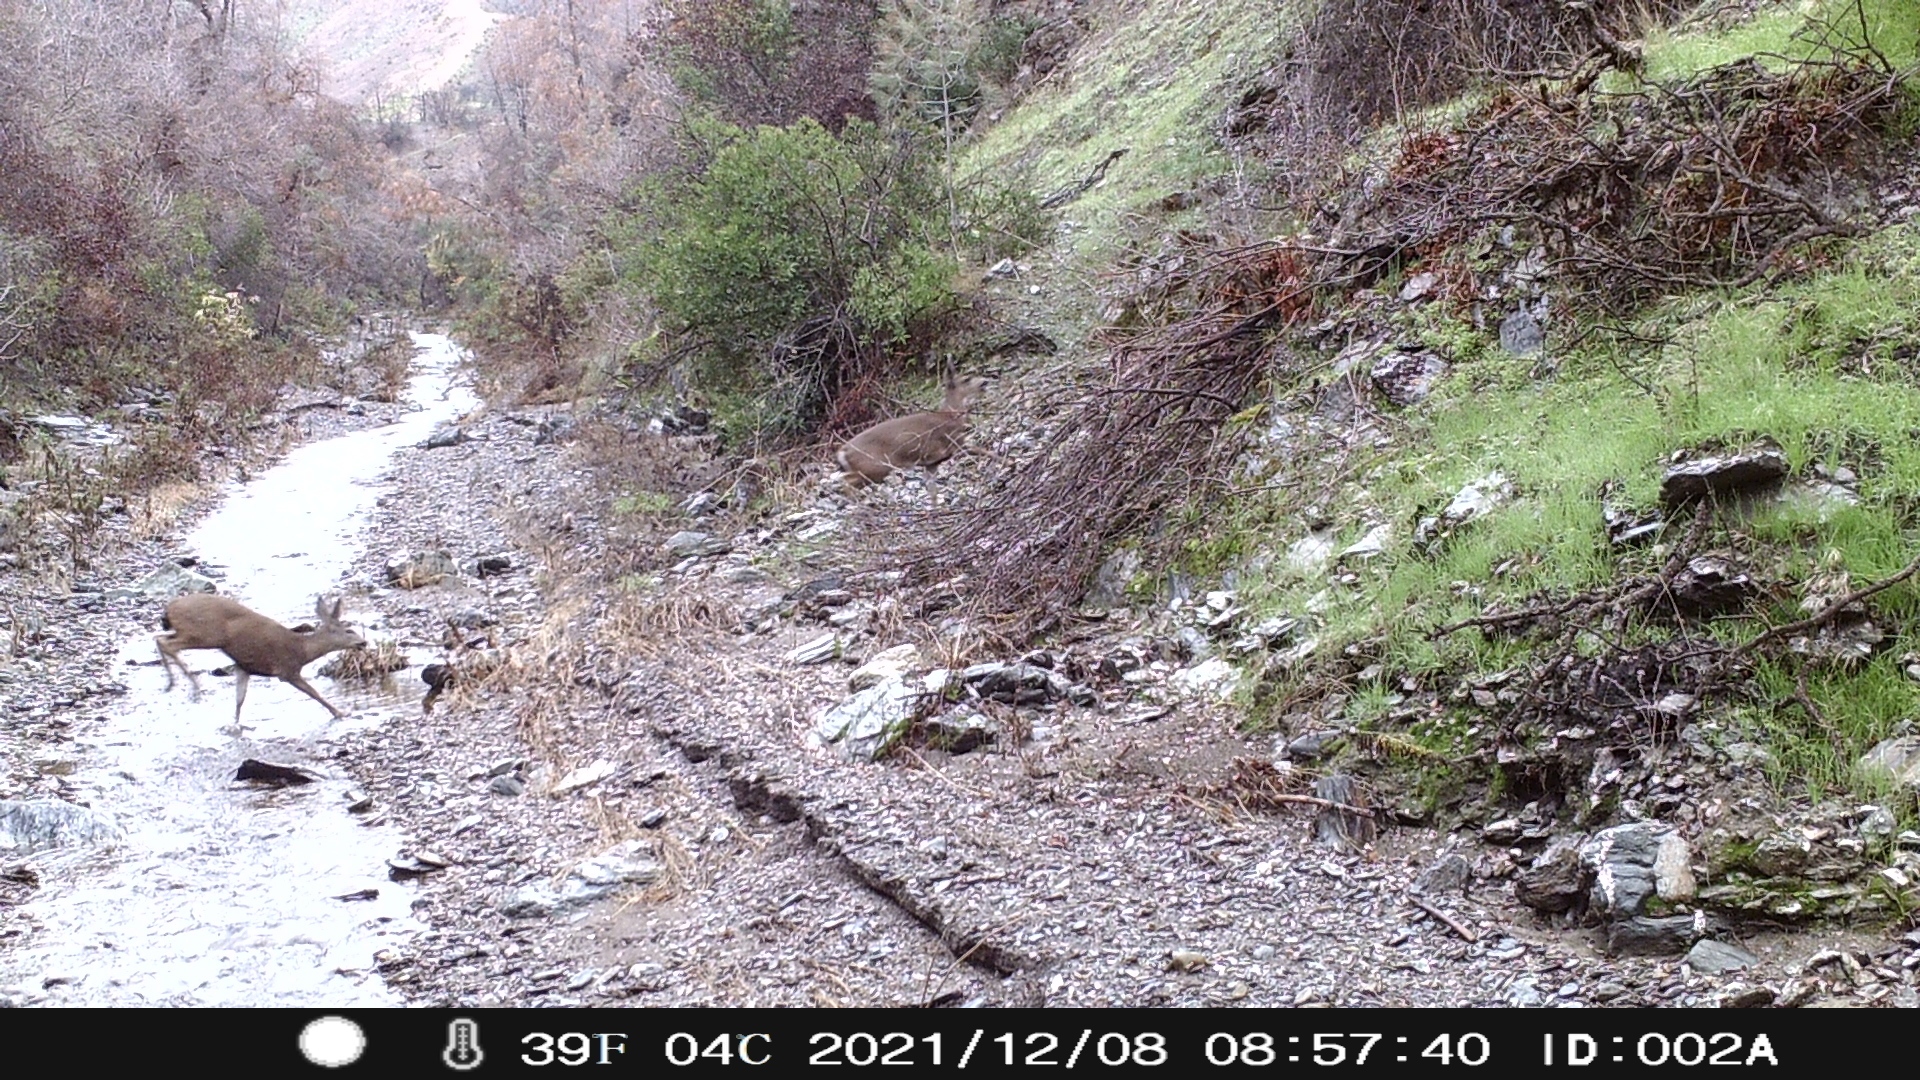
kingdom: Animalia
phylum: Chordata
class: Mammalia
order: Artiodactyla
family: Cervidae
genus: Odocoileus
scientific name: Odocoileus hemionus
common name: Mule deer
